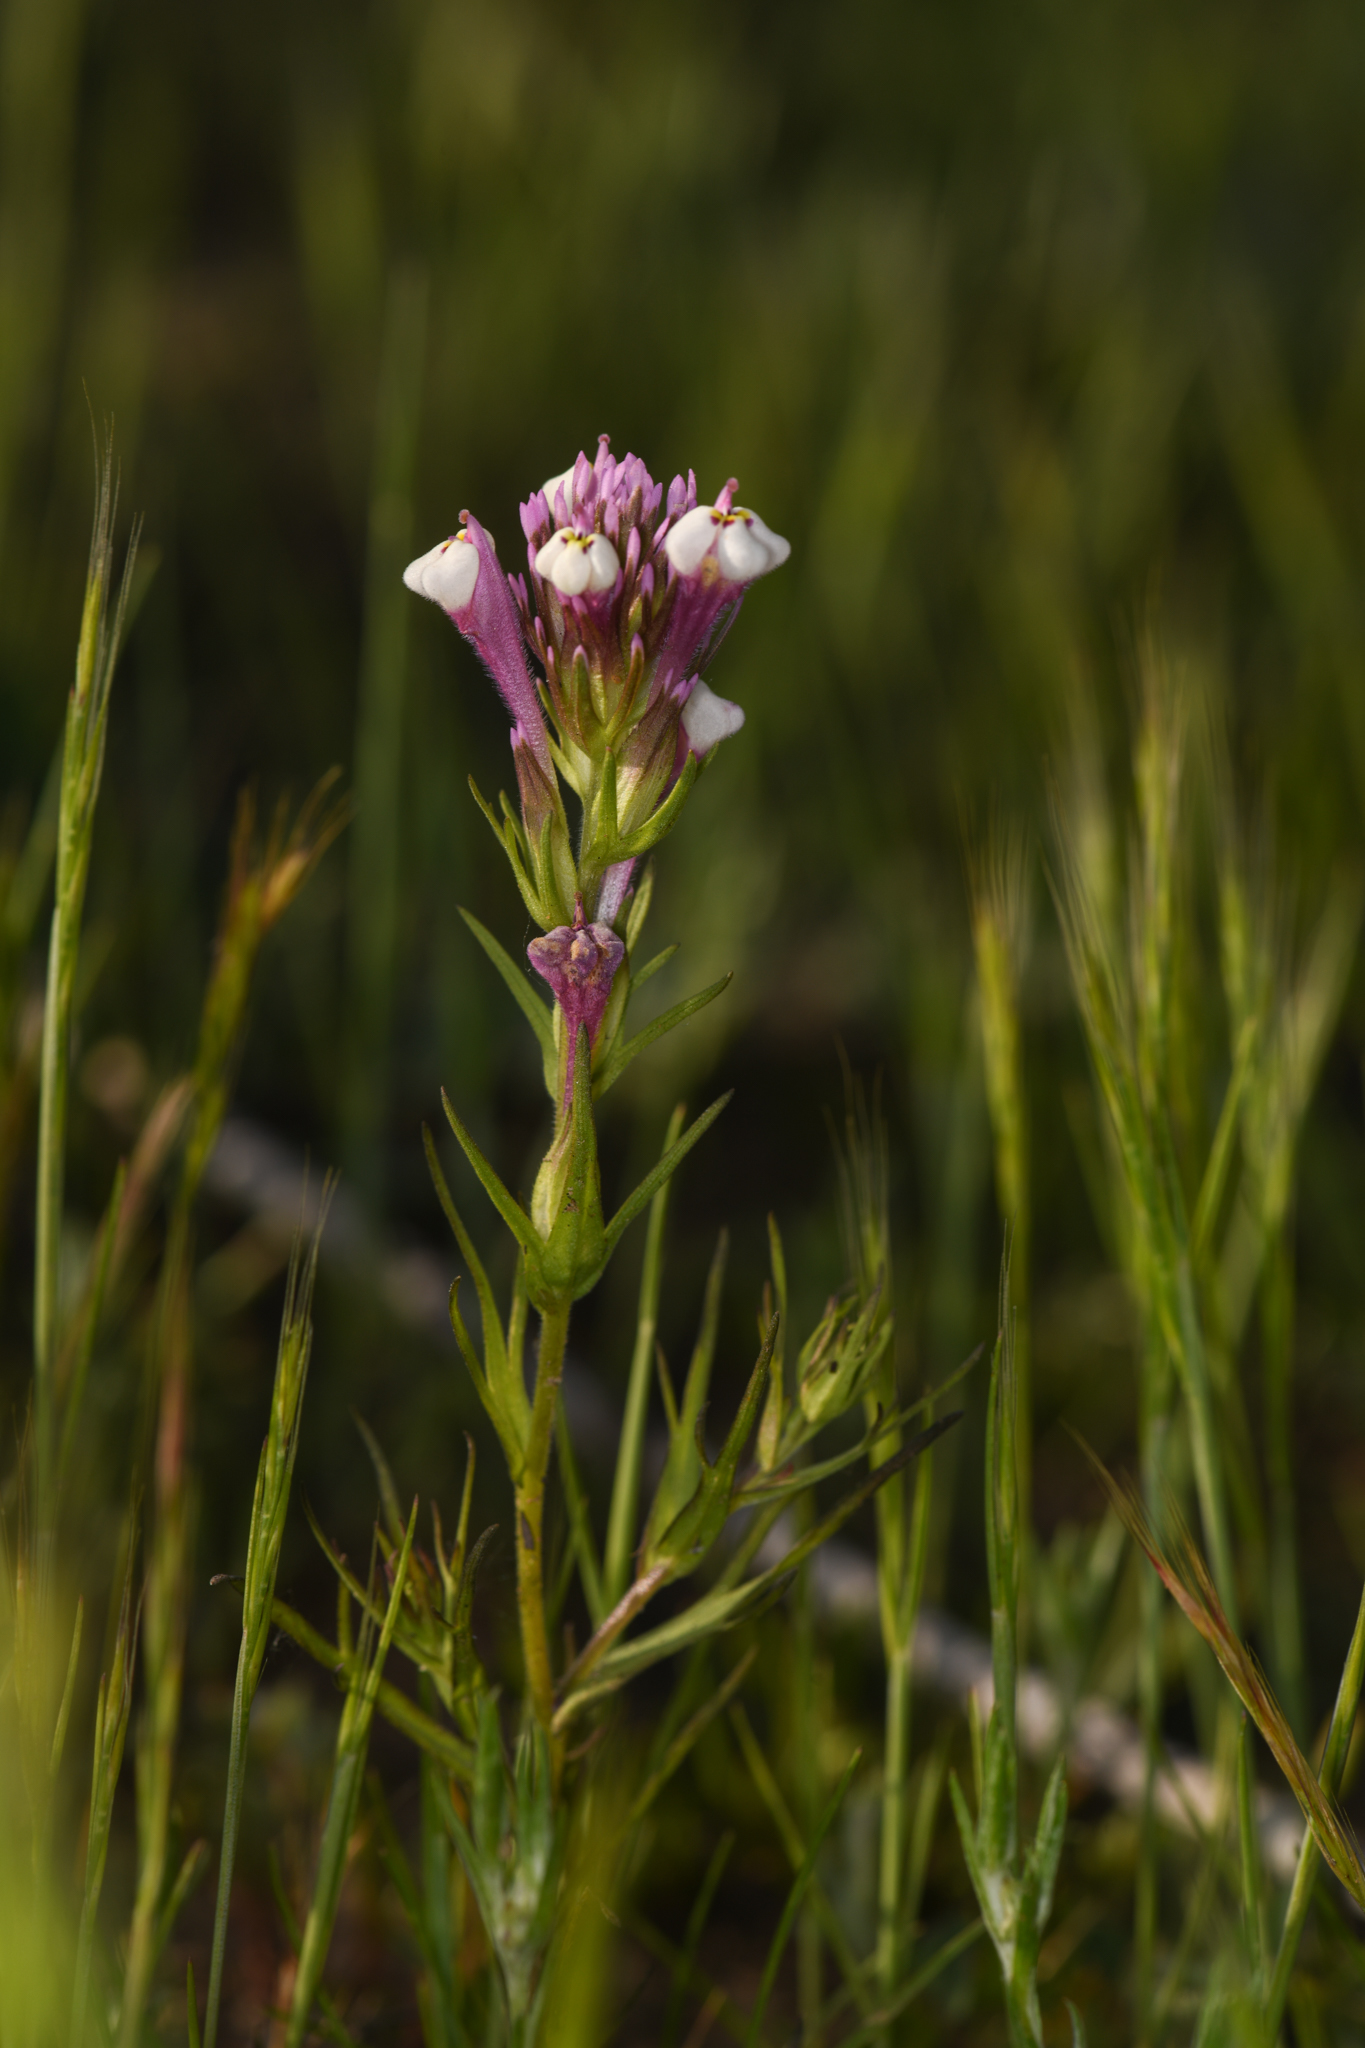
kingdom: Plantae
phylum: Tracheophyta
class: Magnoliopsida
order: Lamiales
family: Orobanchaceae
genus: Castilleja
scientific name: Castilleja densiflora
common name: Dense-flower indian paintbrush
